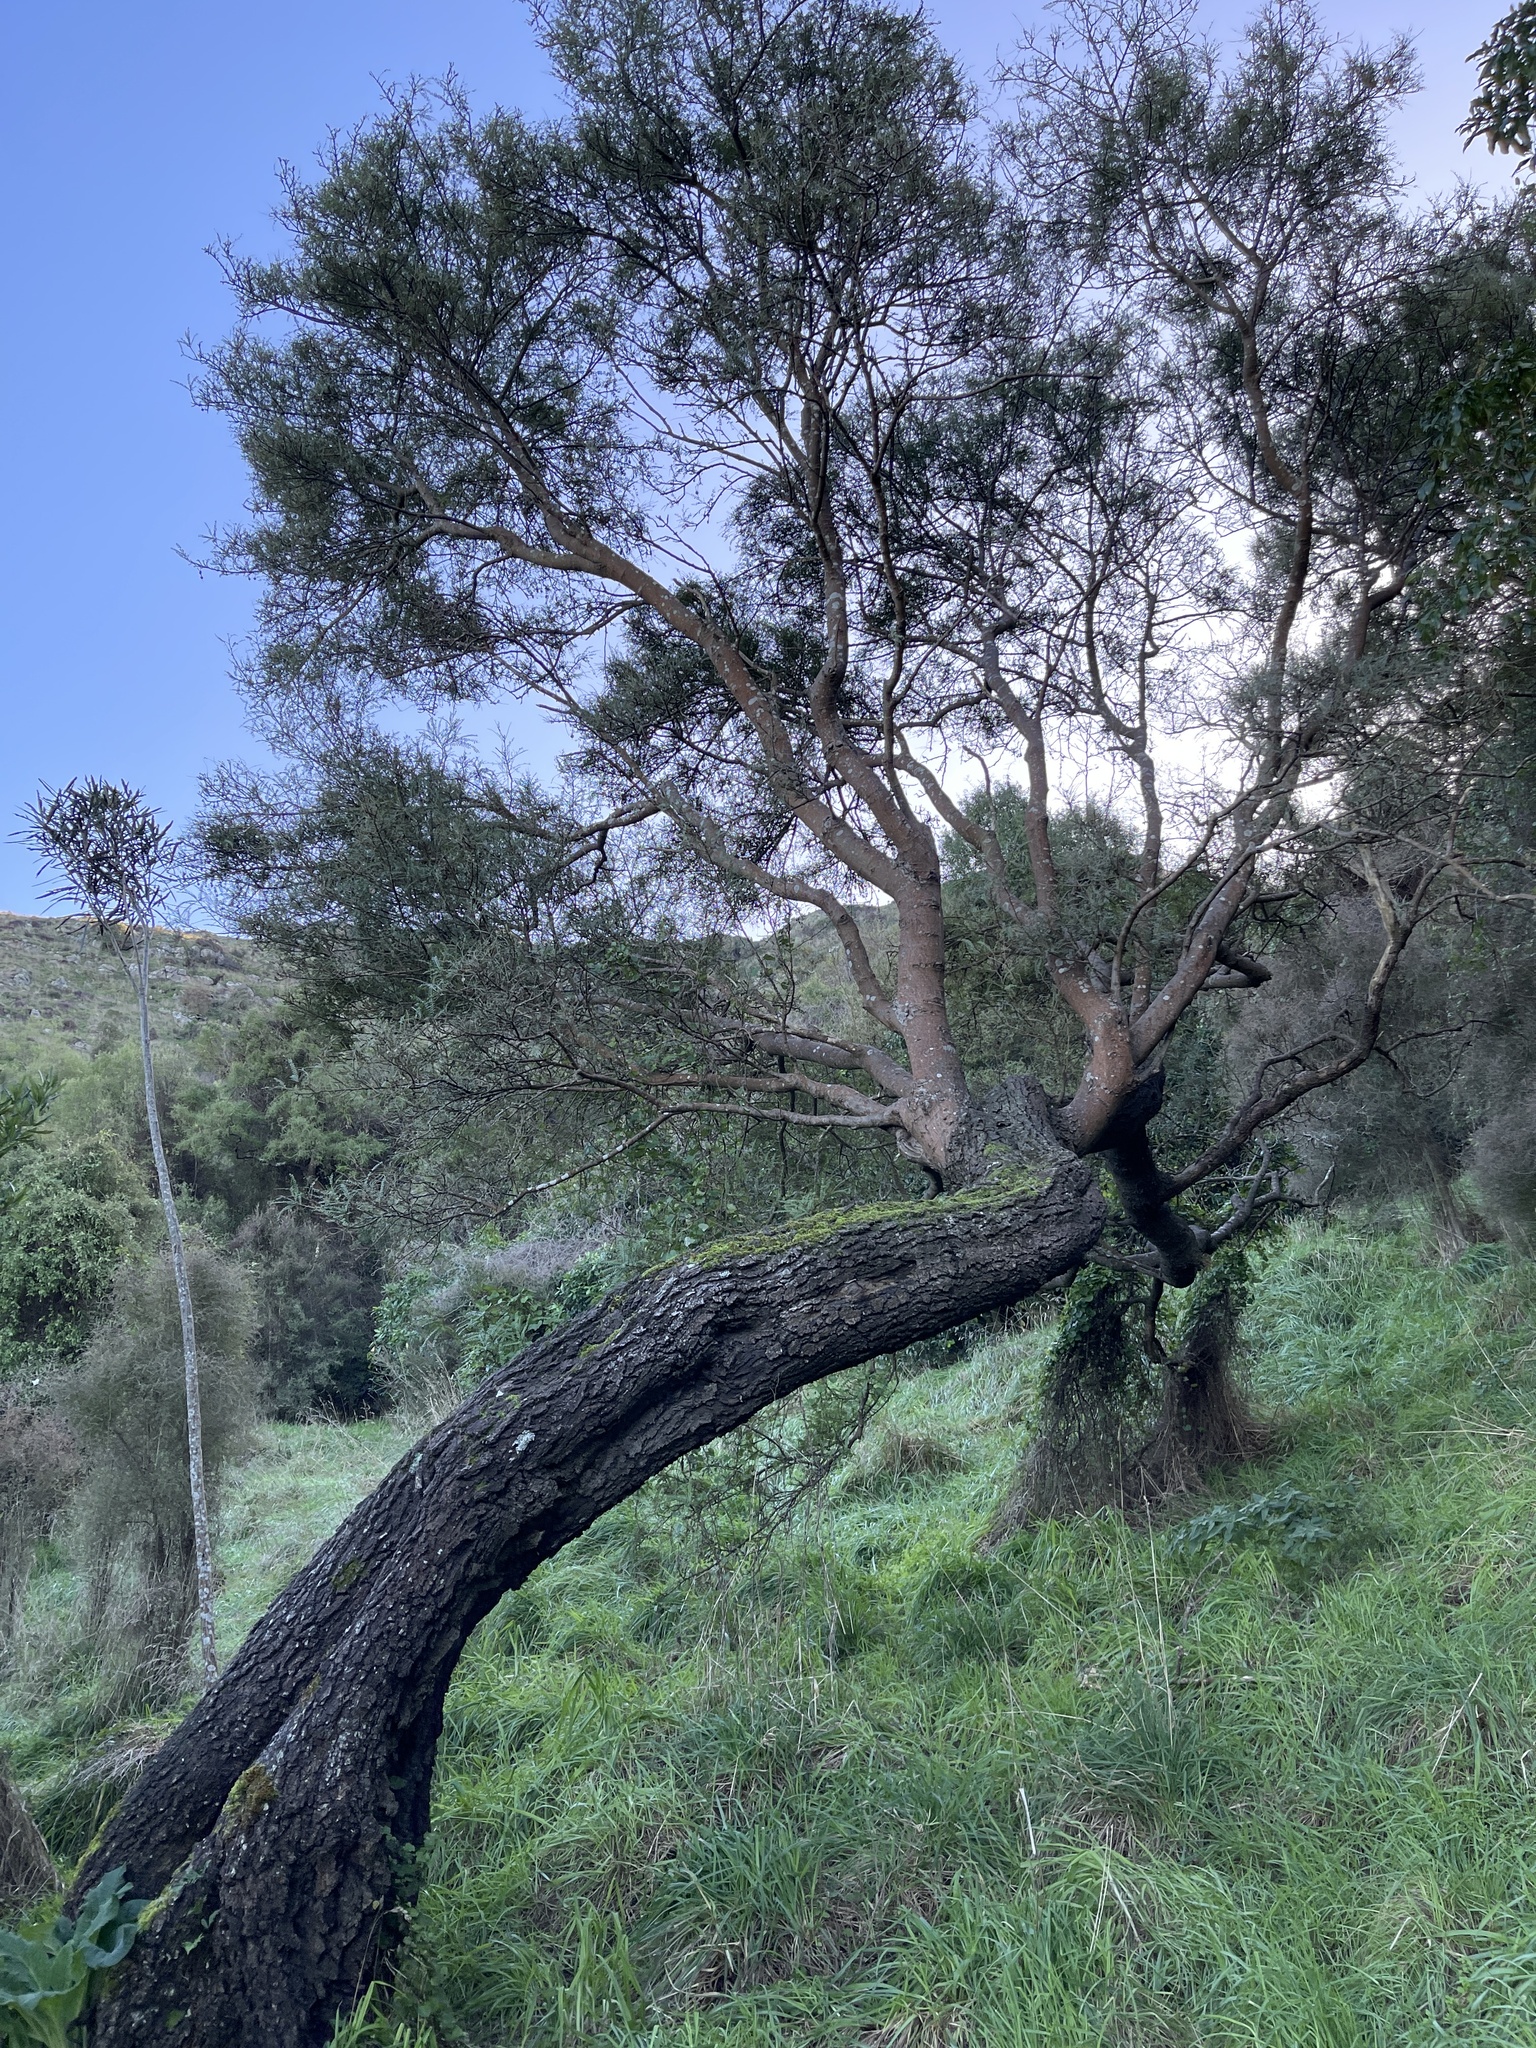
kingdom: Plantae
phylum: Tracheophyta
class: Magnoliopsida
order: Fabales
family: Fabaceae
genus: Sophora
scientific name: Sophora microphylla
